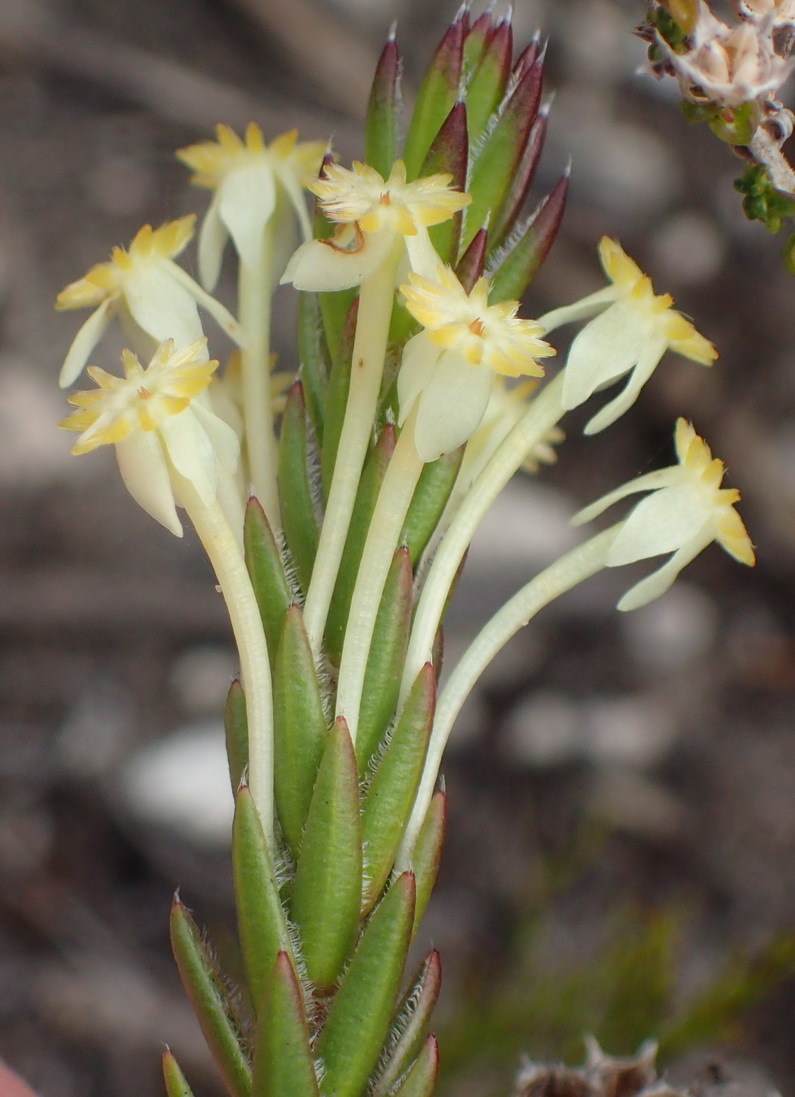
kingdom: Plantae
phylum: Tracheophyta
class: Magnoliopsida
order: Malvales
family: Thymelaeaceae
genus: Struthiola
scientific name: Struthiola rigida
